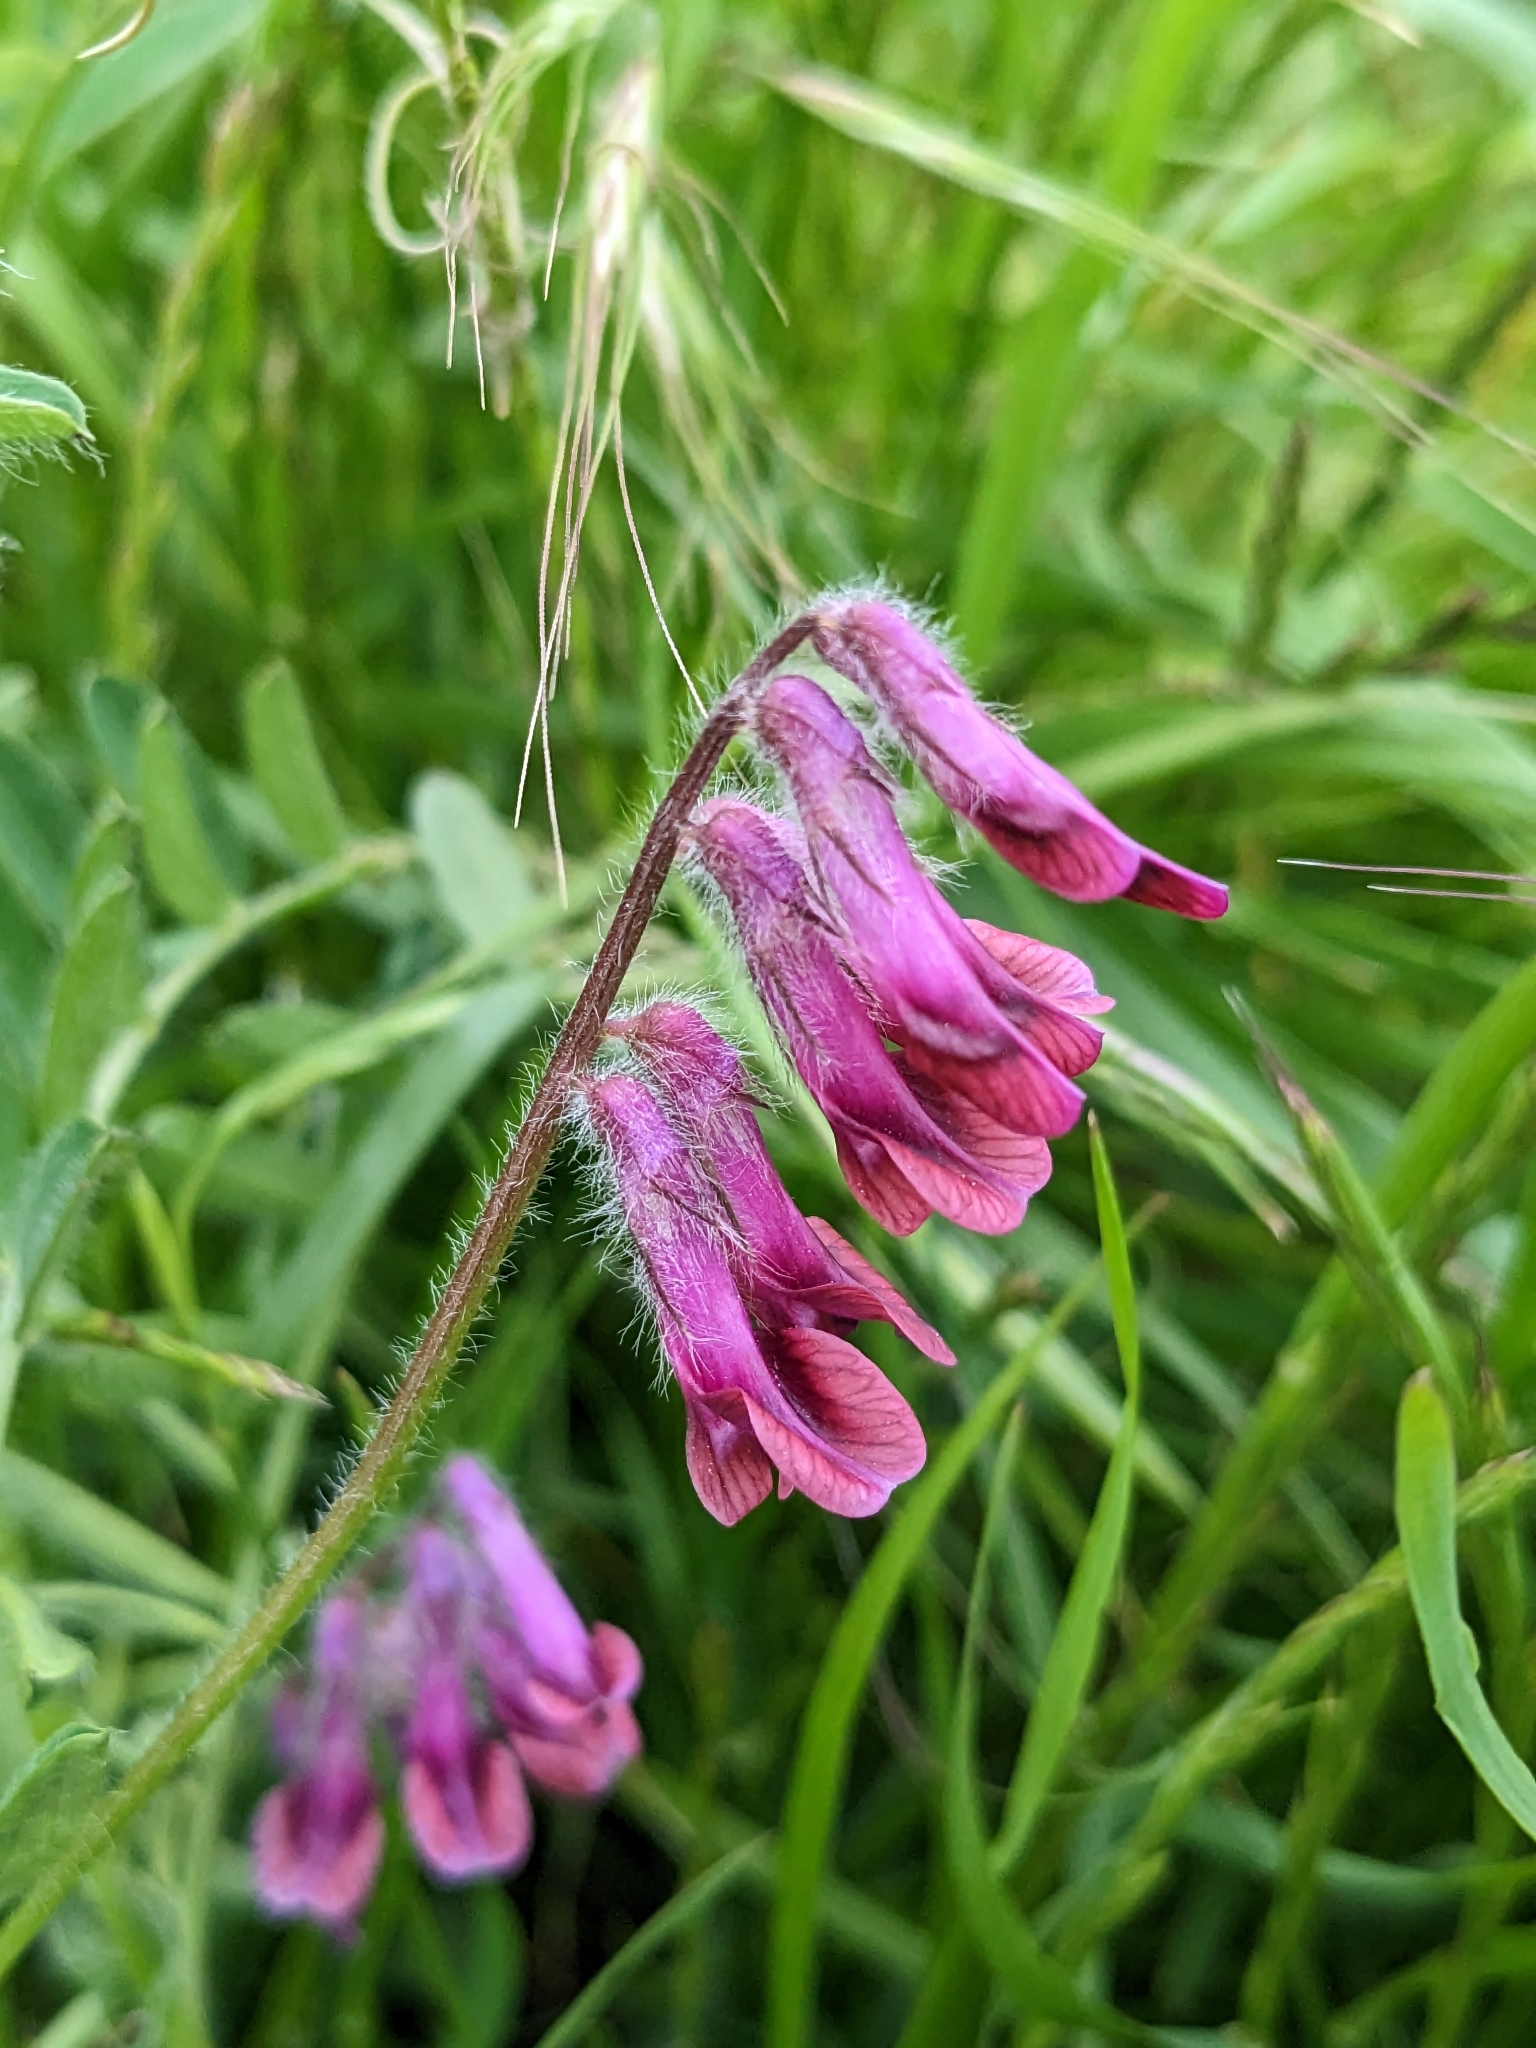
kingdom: Plantae
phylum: Tracheophyta
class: Magnoliopsida
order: Fabales
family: Fabaceae
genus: Vicia
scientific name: Vicia benghalensis
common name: Purple vetch
